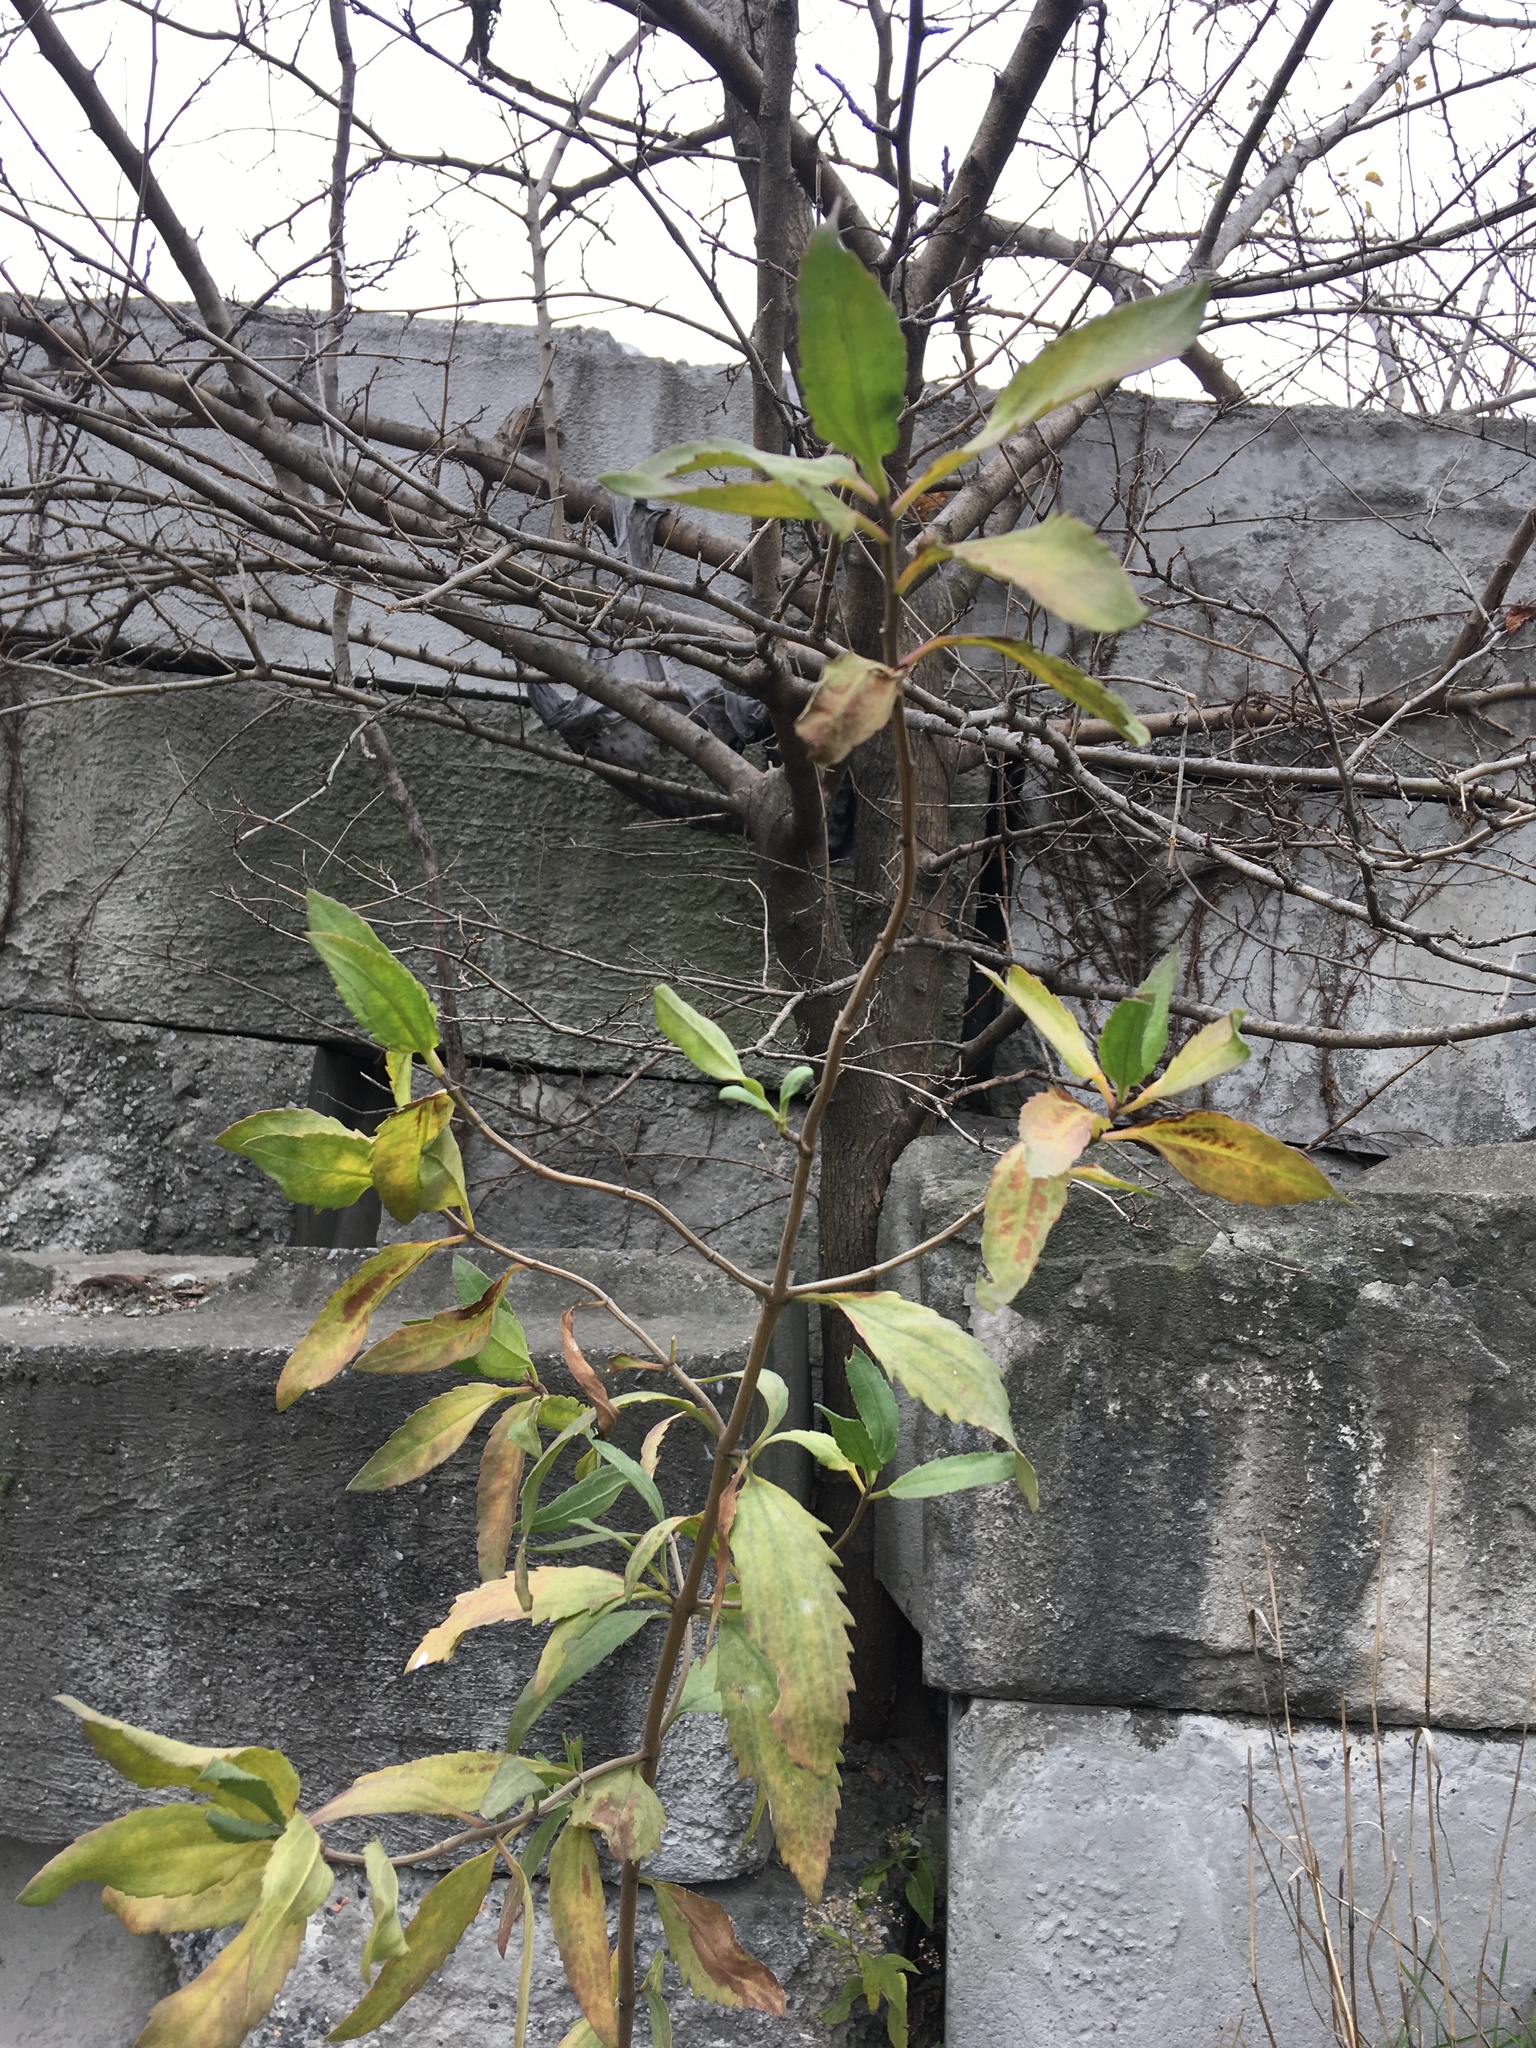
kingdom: Plantae
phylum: Tracheophyta
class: Magnoliopsida
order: Asterales
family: Asteraceae
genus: Iva
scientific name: Iva frutescens
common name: Big-leaved marsh-elder
